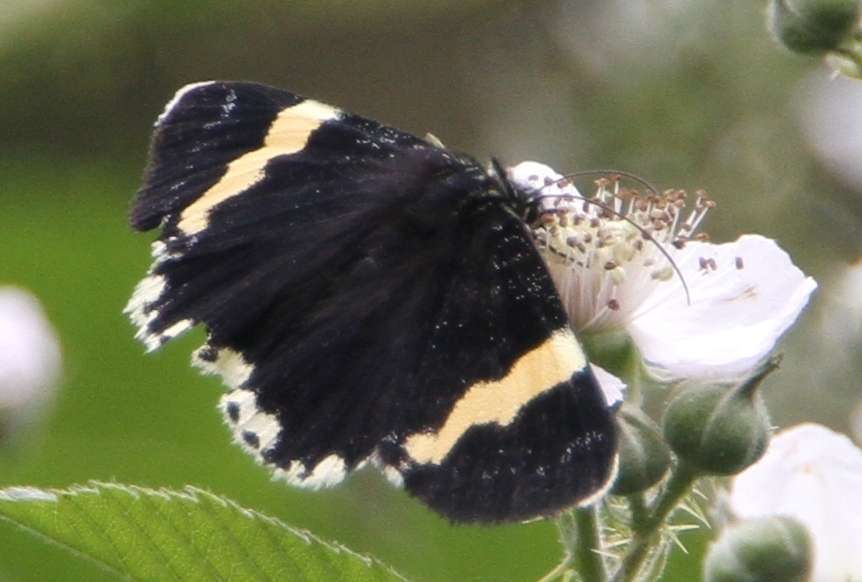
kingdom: Animalia
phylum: Arthropoda
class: Insecta
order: Lepidoptera
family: Noctuidae
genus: Eutrichopidia
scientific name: Eutrichopidia latinus
